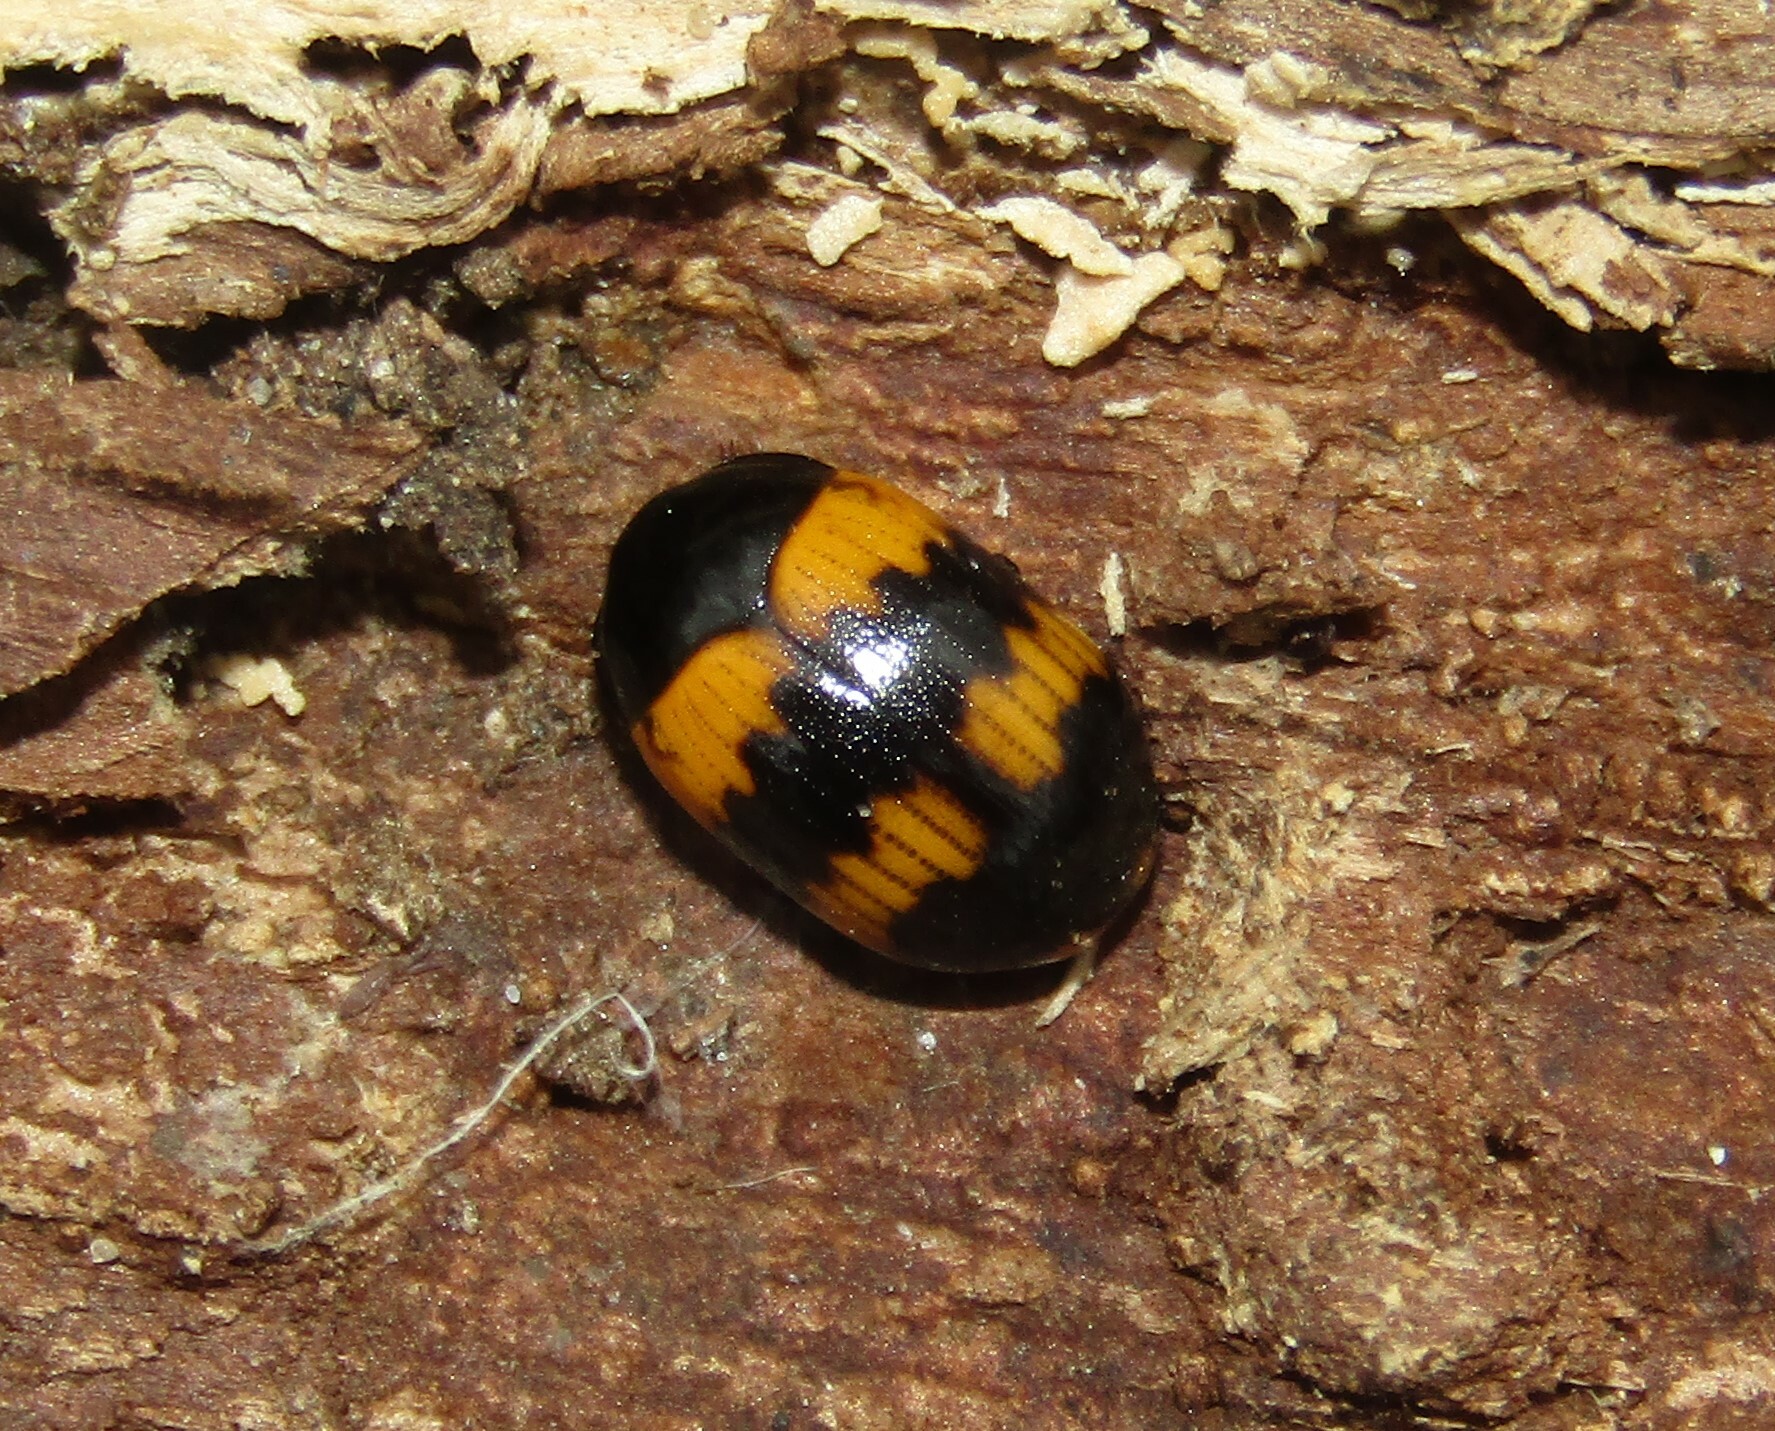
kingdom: Animalia
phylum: Arthropoda
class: Insecta
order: Coleoptera
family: Tenebrionidae
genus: Diaperis
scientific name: Diaperis boleti
